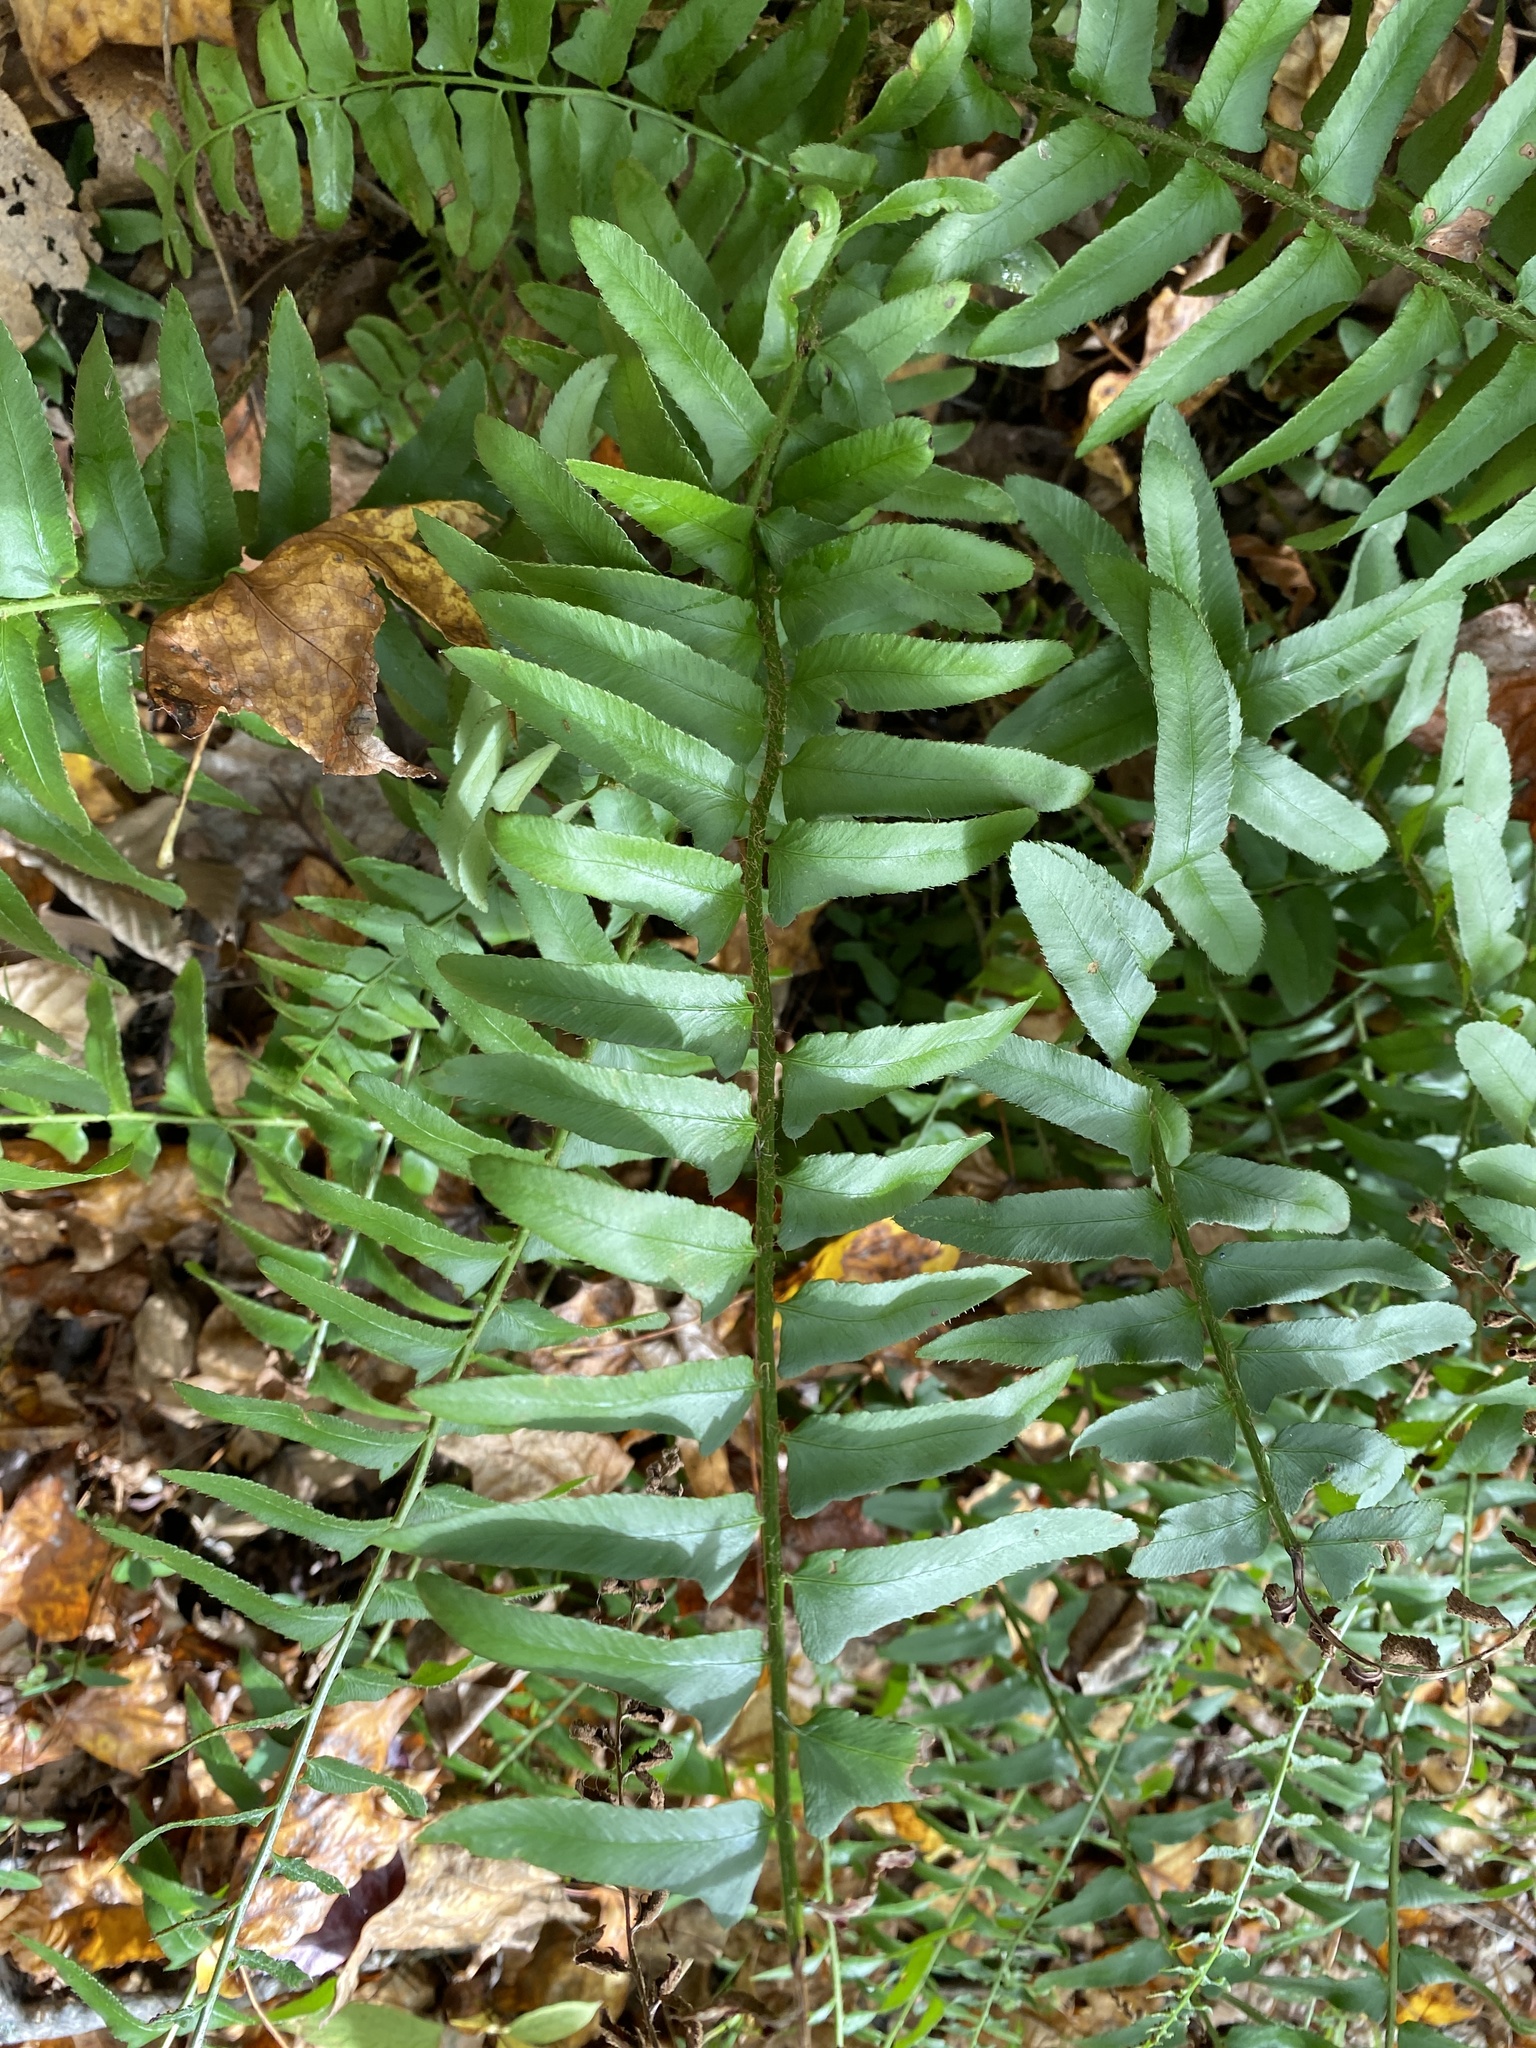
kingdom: Plantae
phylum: Tracheophyta
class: Polypodiopsida
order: Polypodiales
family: Dryopteridaceae
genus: Polystichum
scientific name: Polystichum acrostichoides
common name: Christmas fern
